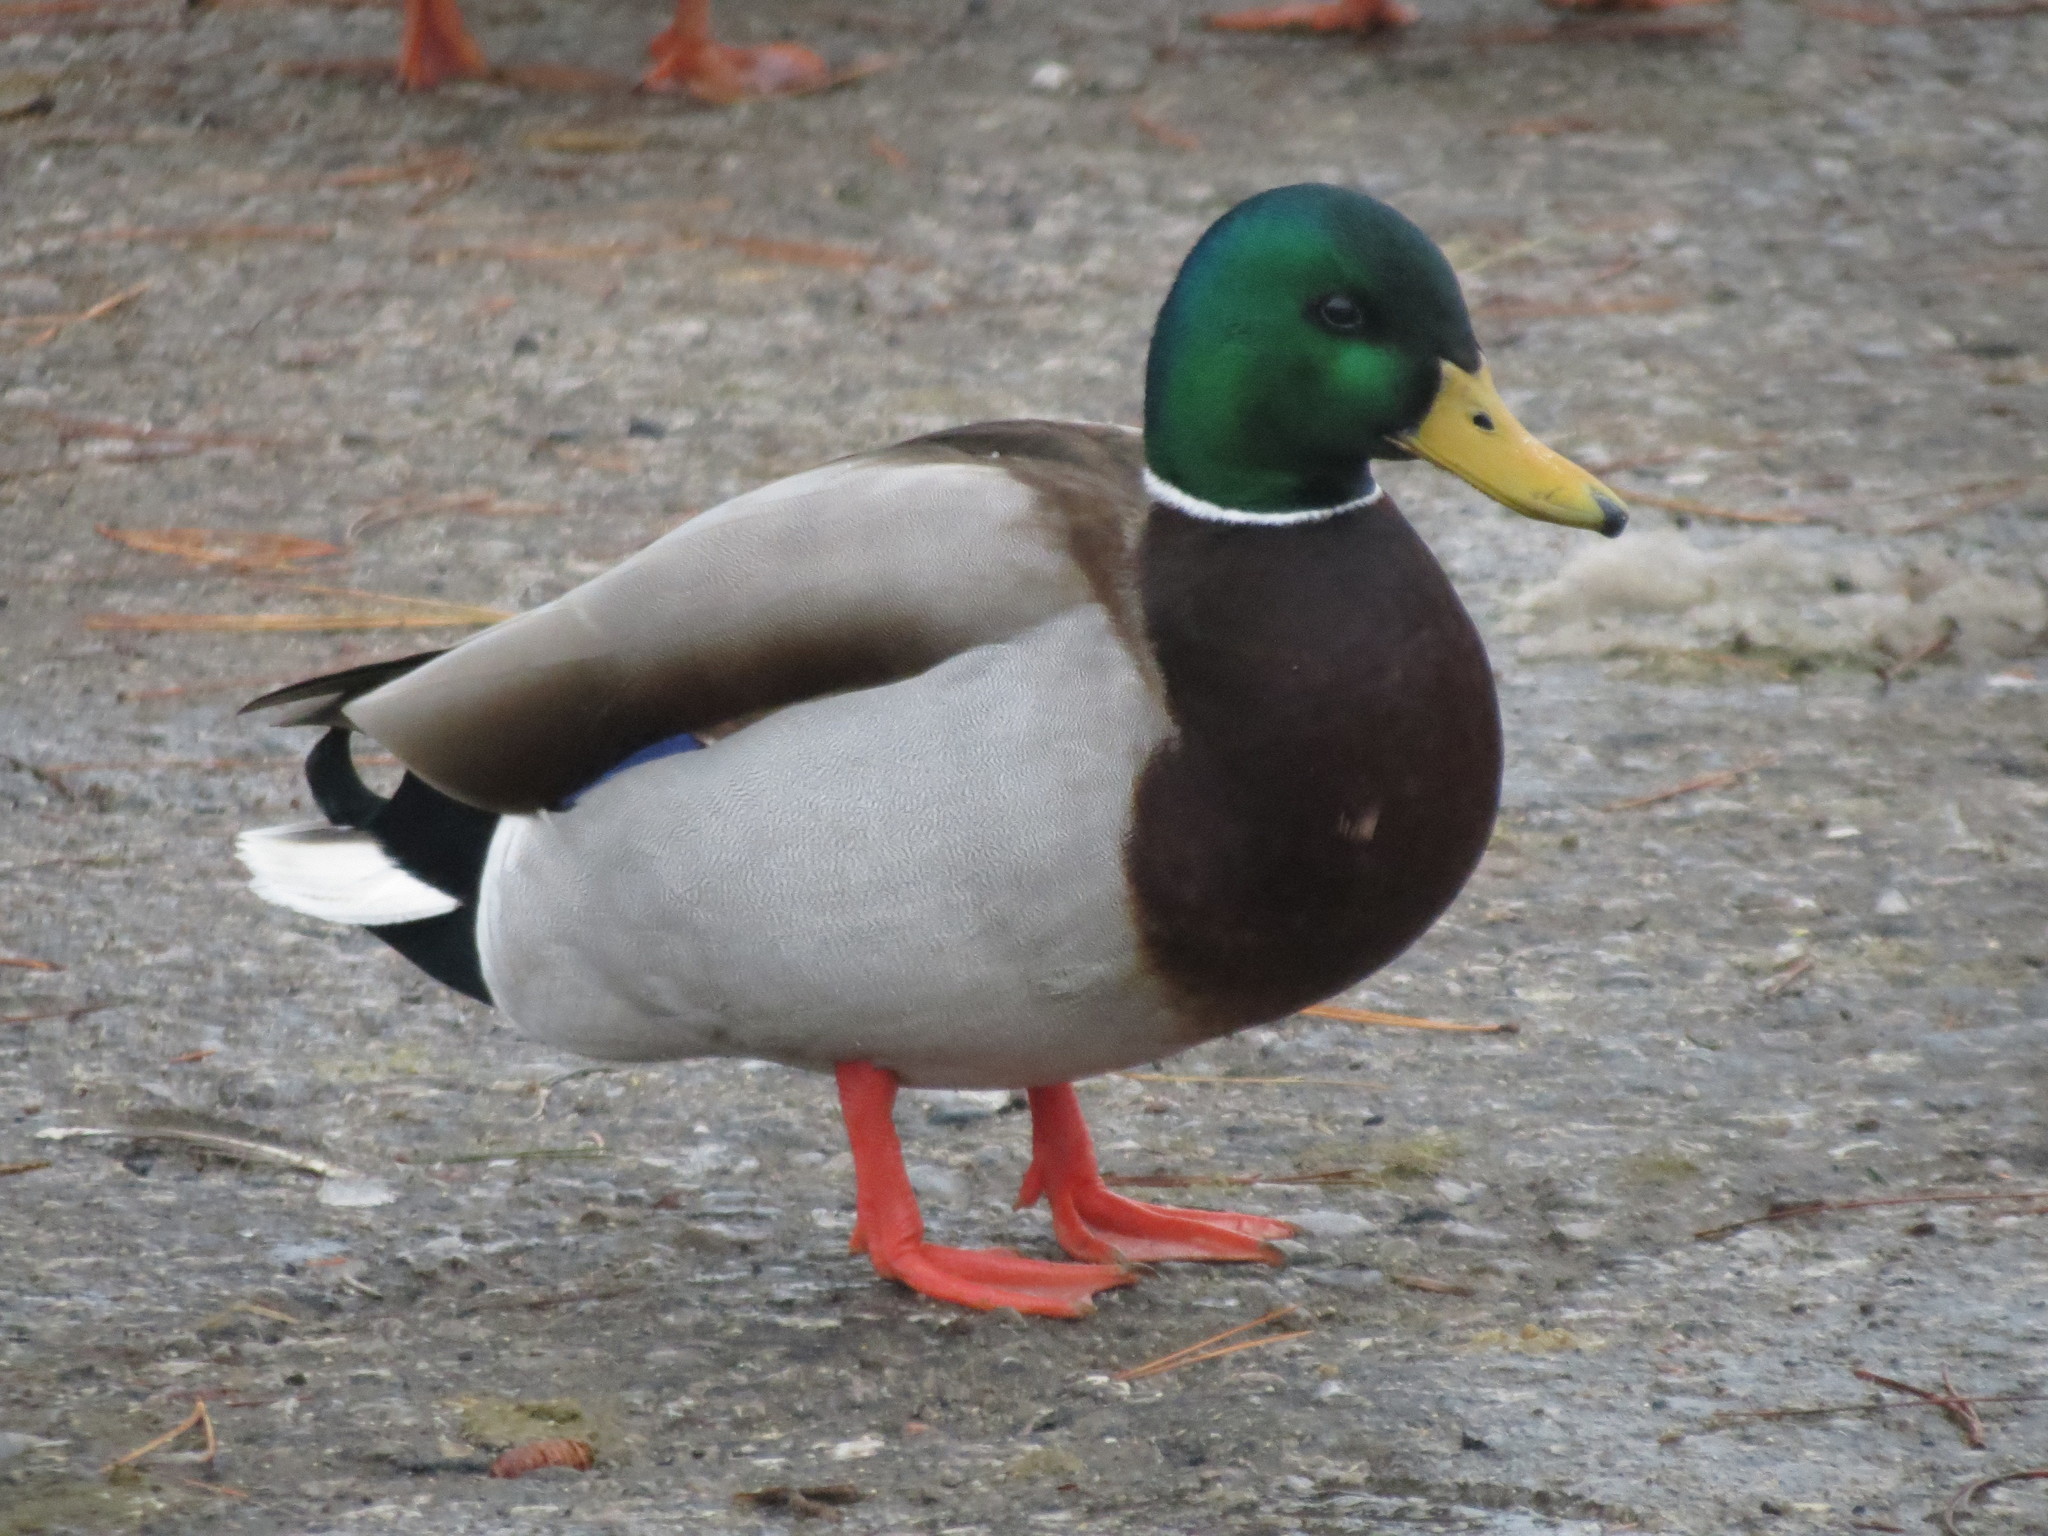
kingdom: Animalia
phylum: Chordata
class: Aves
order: Anseriformes
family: Anatidae
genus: Anas
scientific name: Anas platyrhynchos
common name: Mallard
